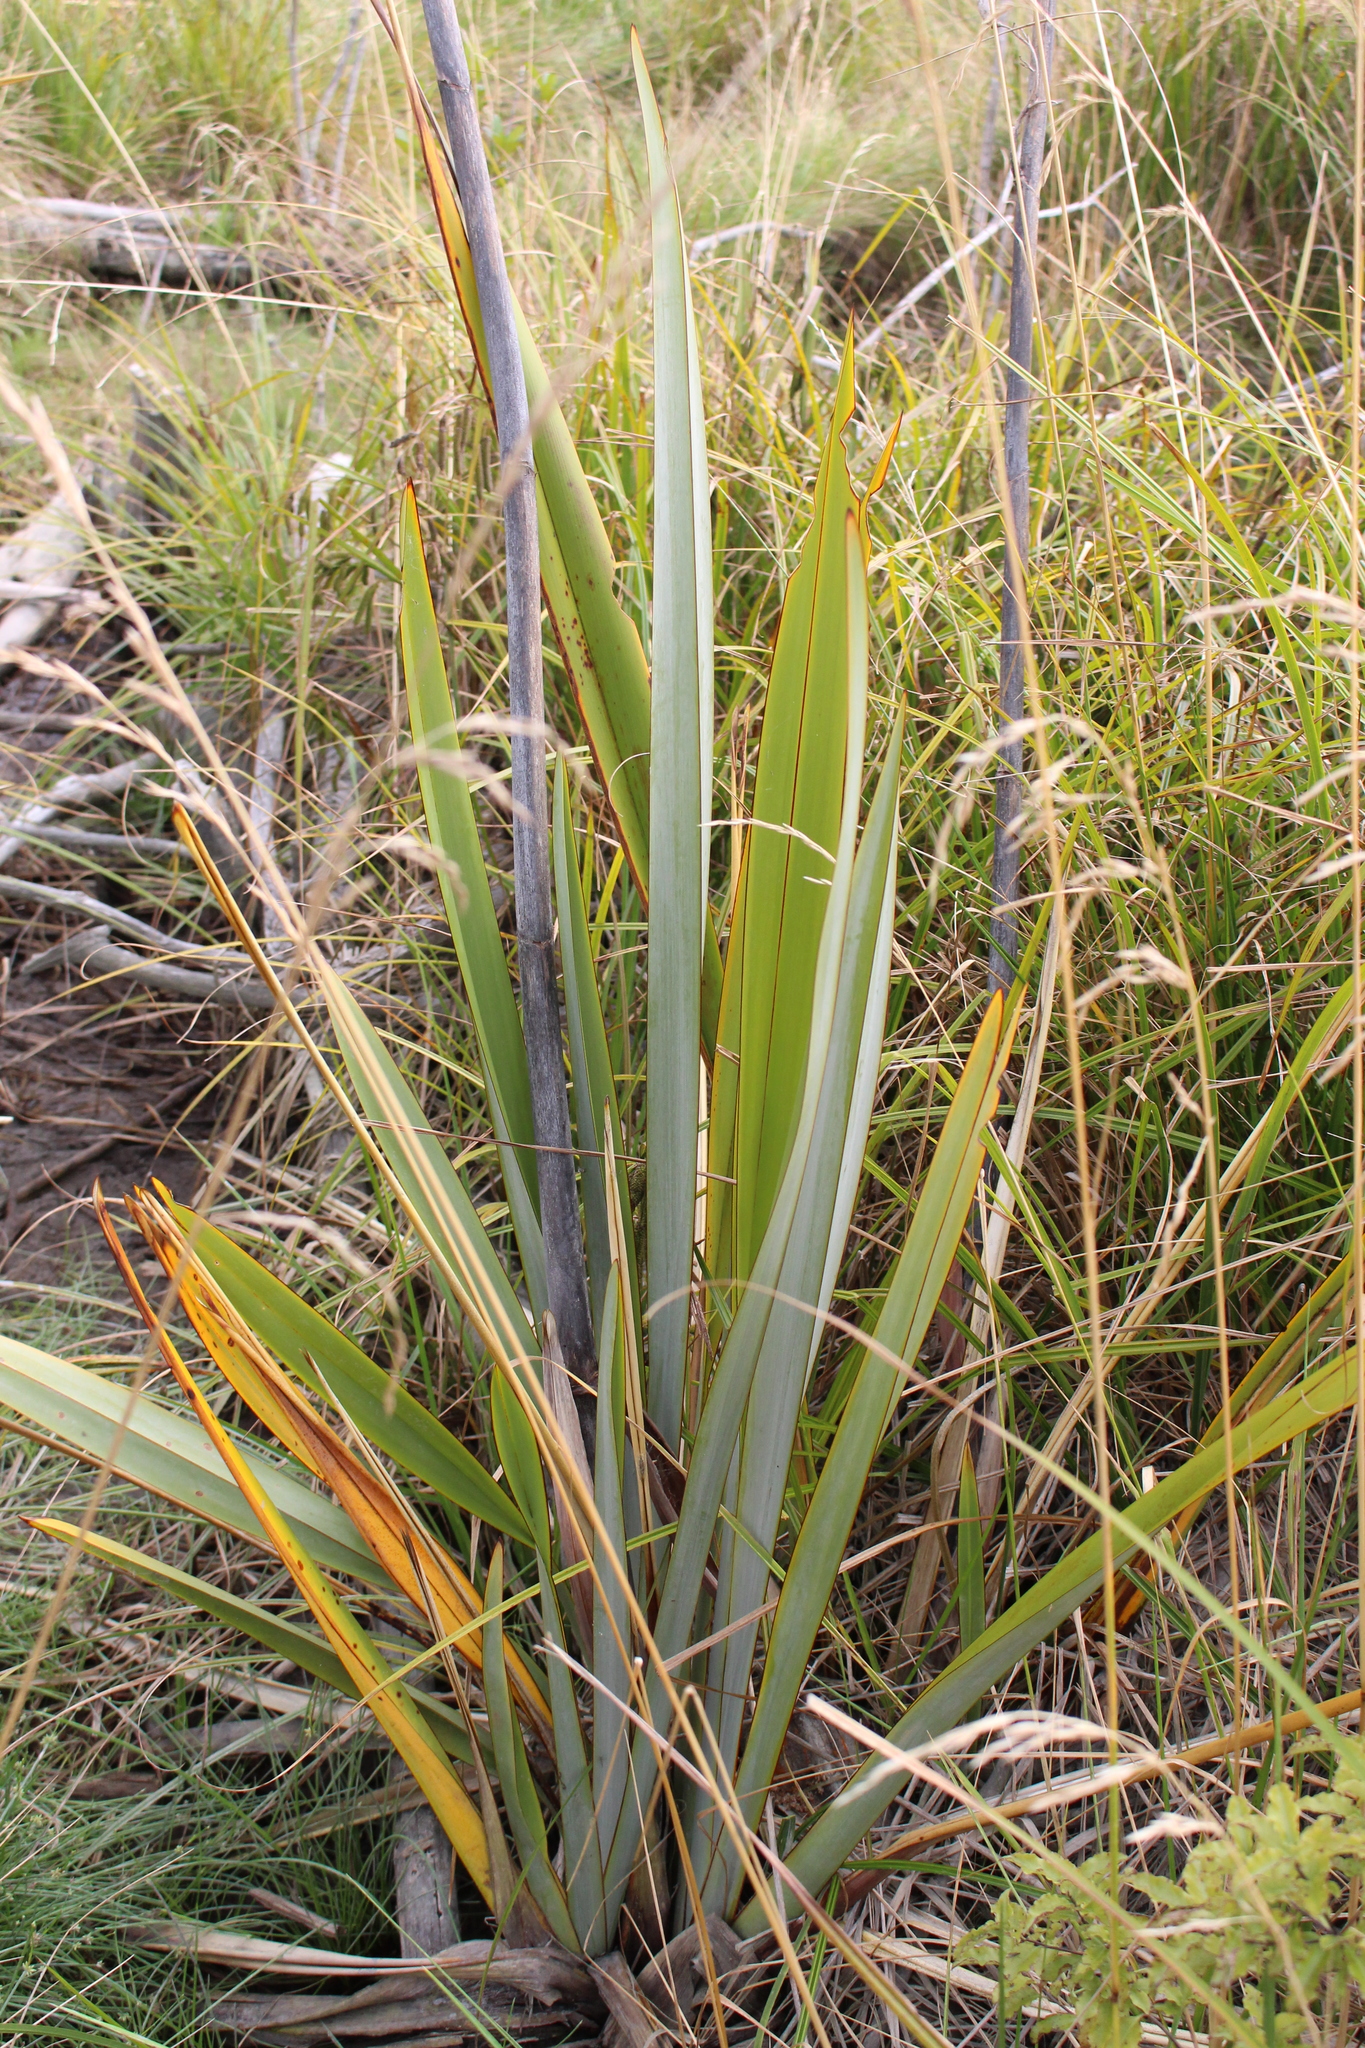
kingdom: Plantae
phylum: Tracheophyta
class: Liliopsida
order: Asparagales
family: Asphodelaceae
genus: Phormium
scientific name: Phormium tenax
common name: New zealand flax
